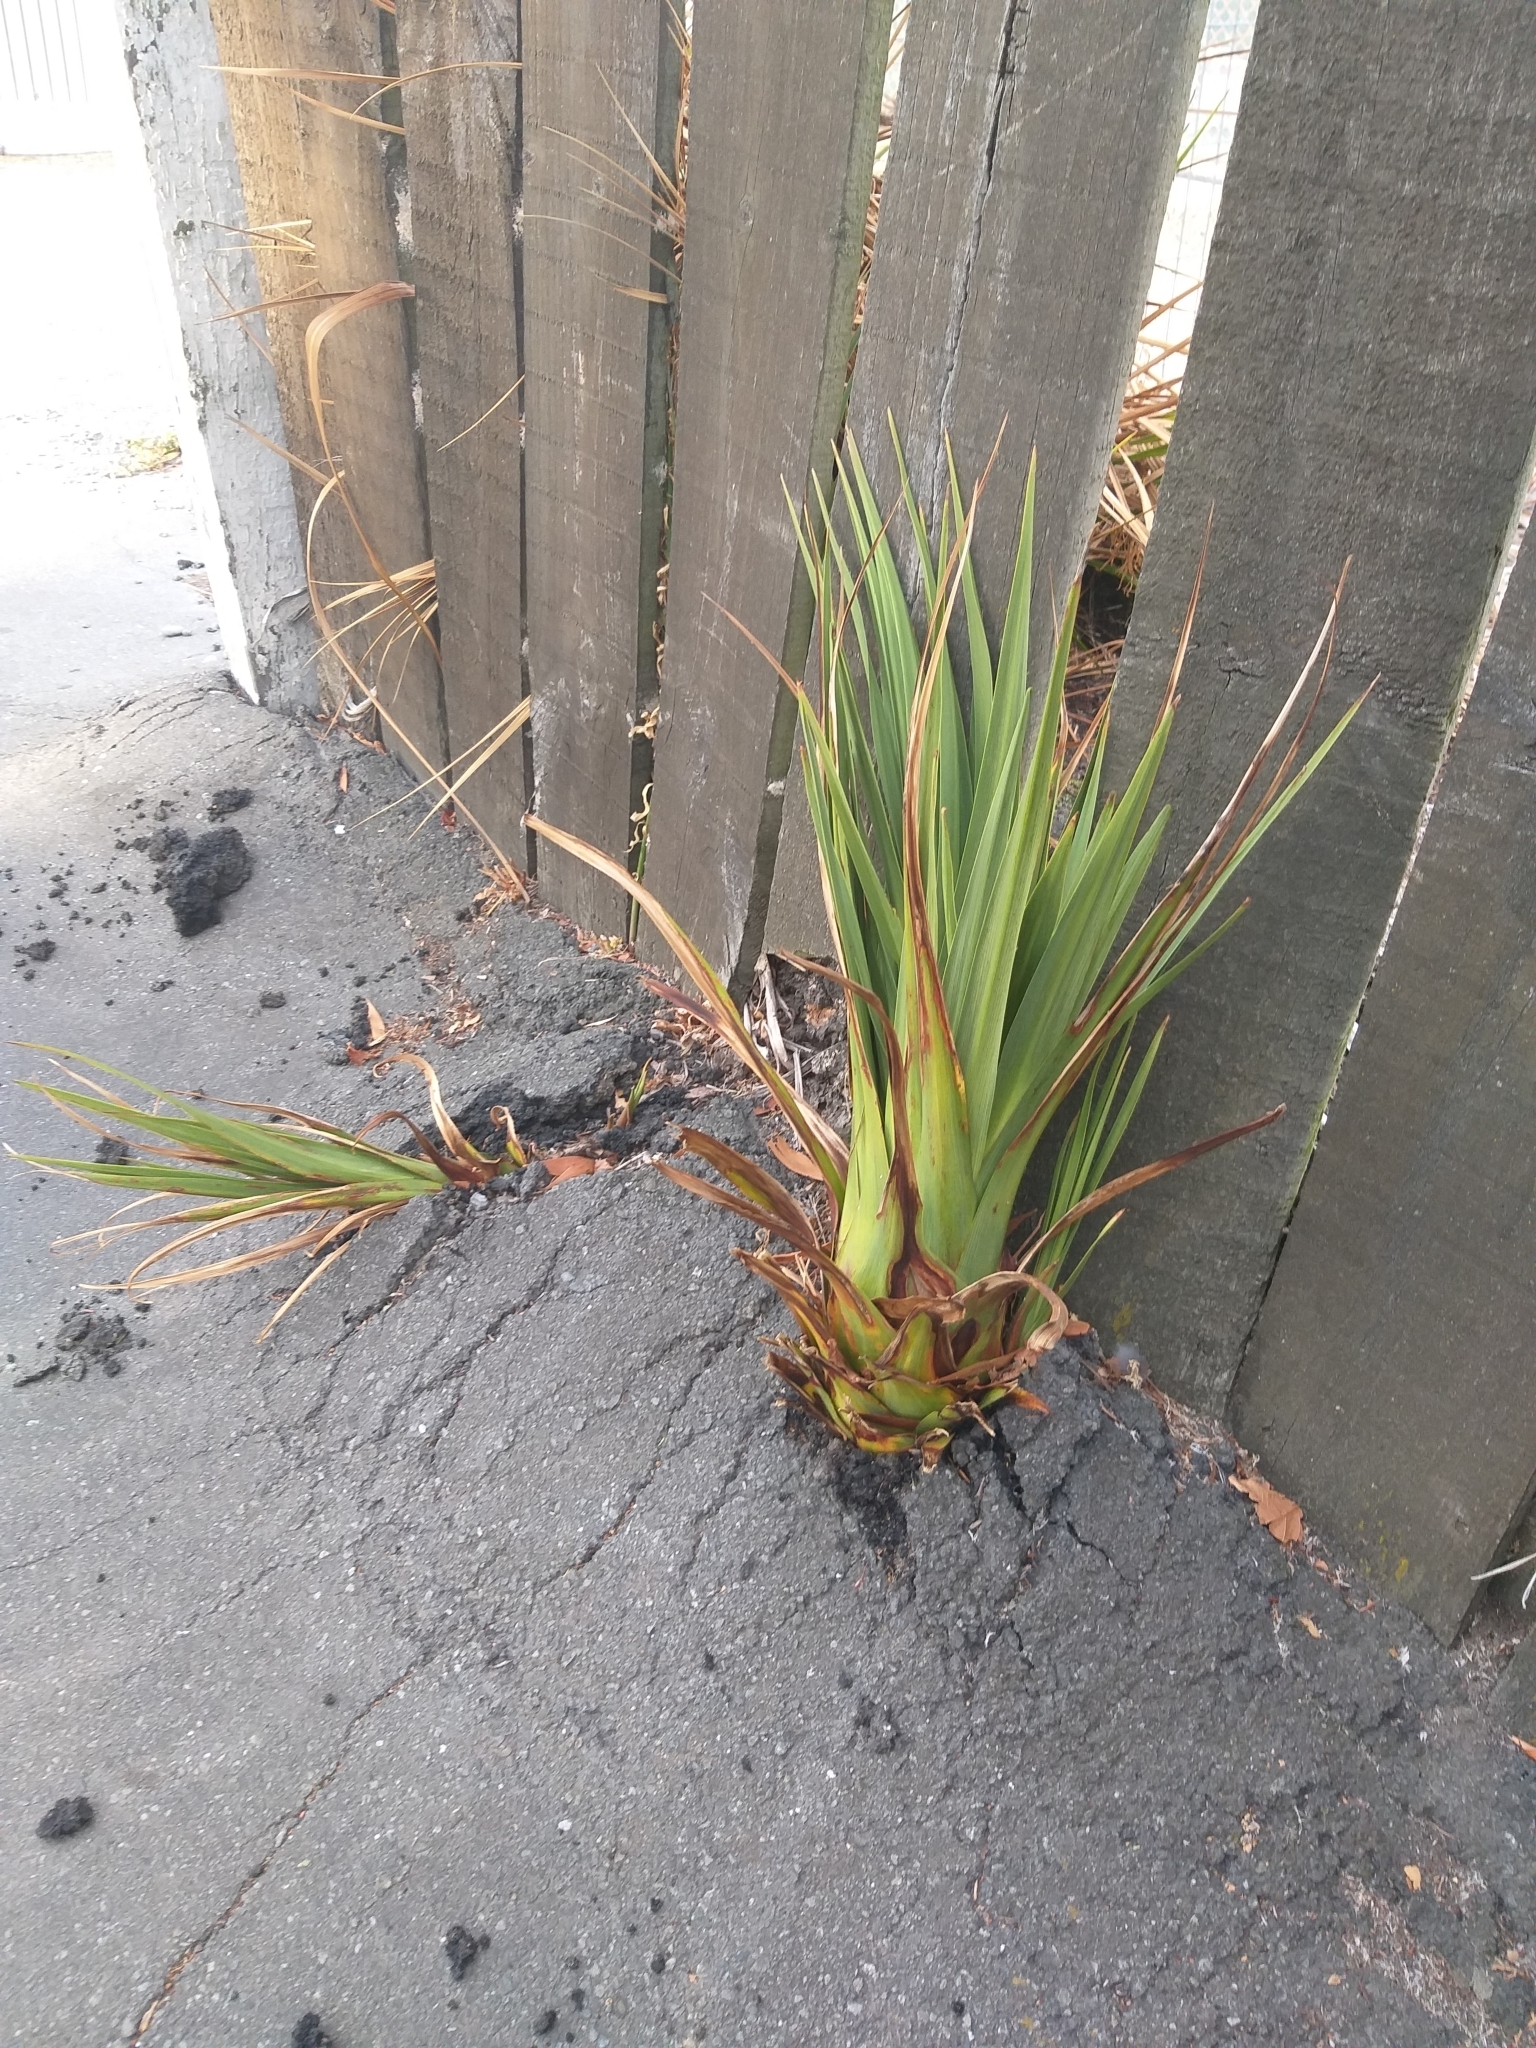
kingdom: Plantae
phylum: Tracheophyta
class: Liliopsida
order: Asparagales
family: Asparagaceae
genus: Cordyline
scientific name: Cordyline australis
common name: Cabbage-palm
